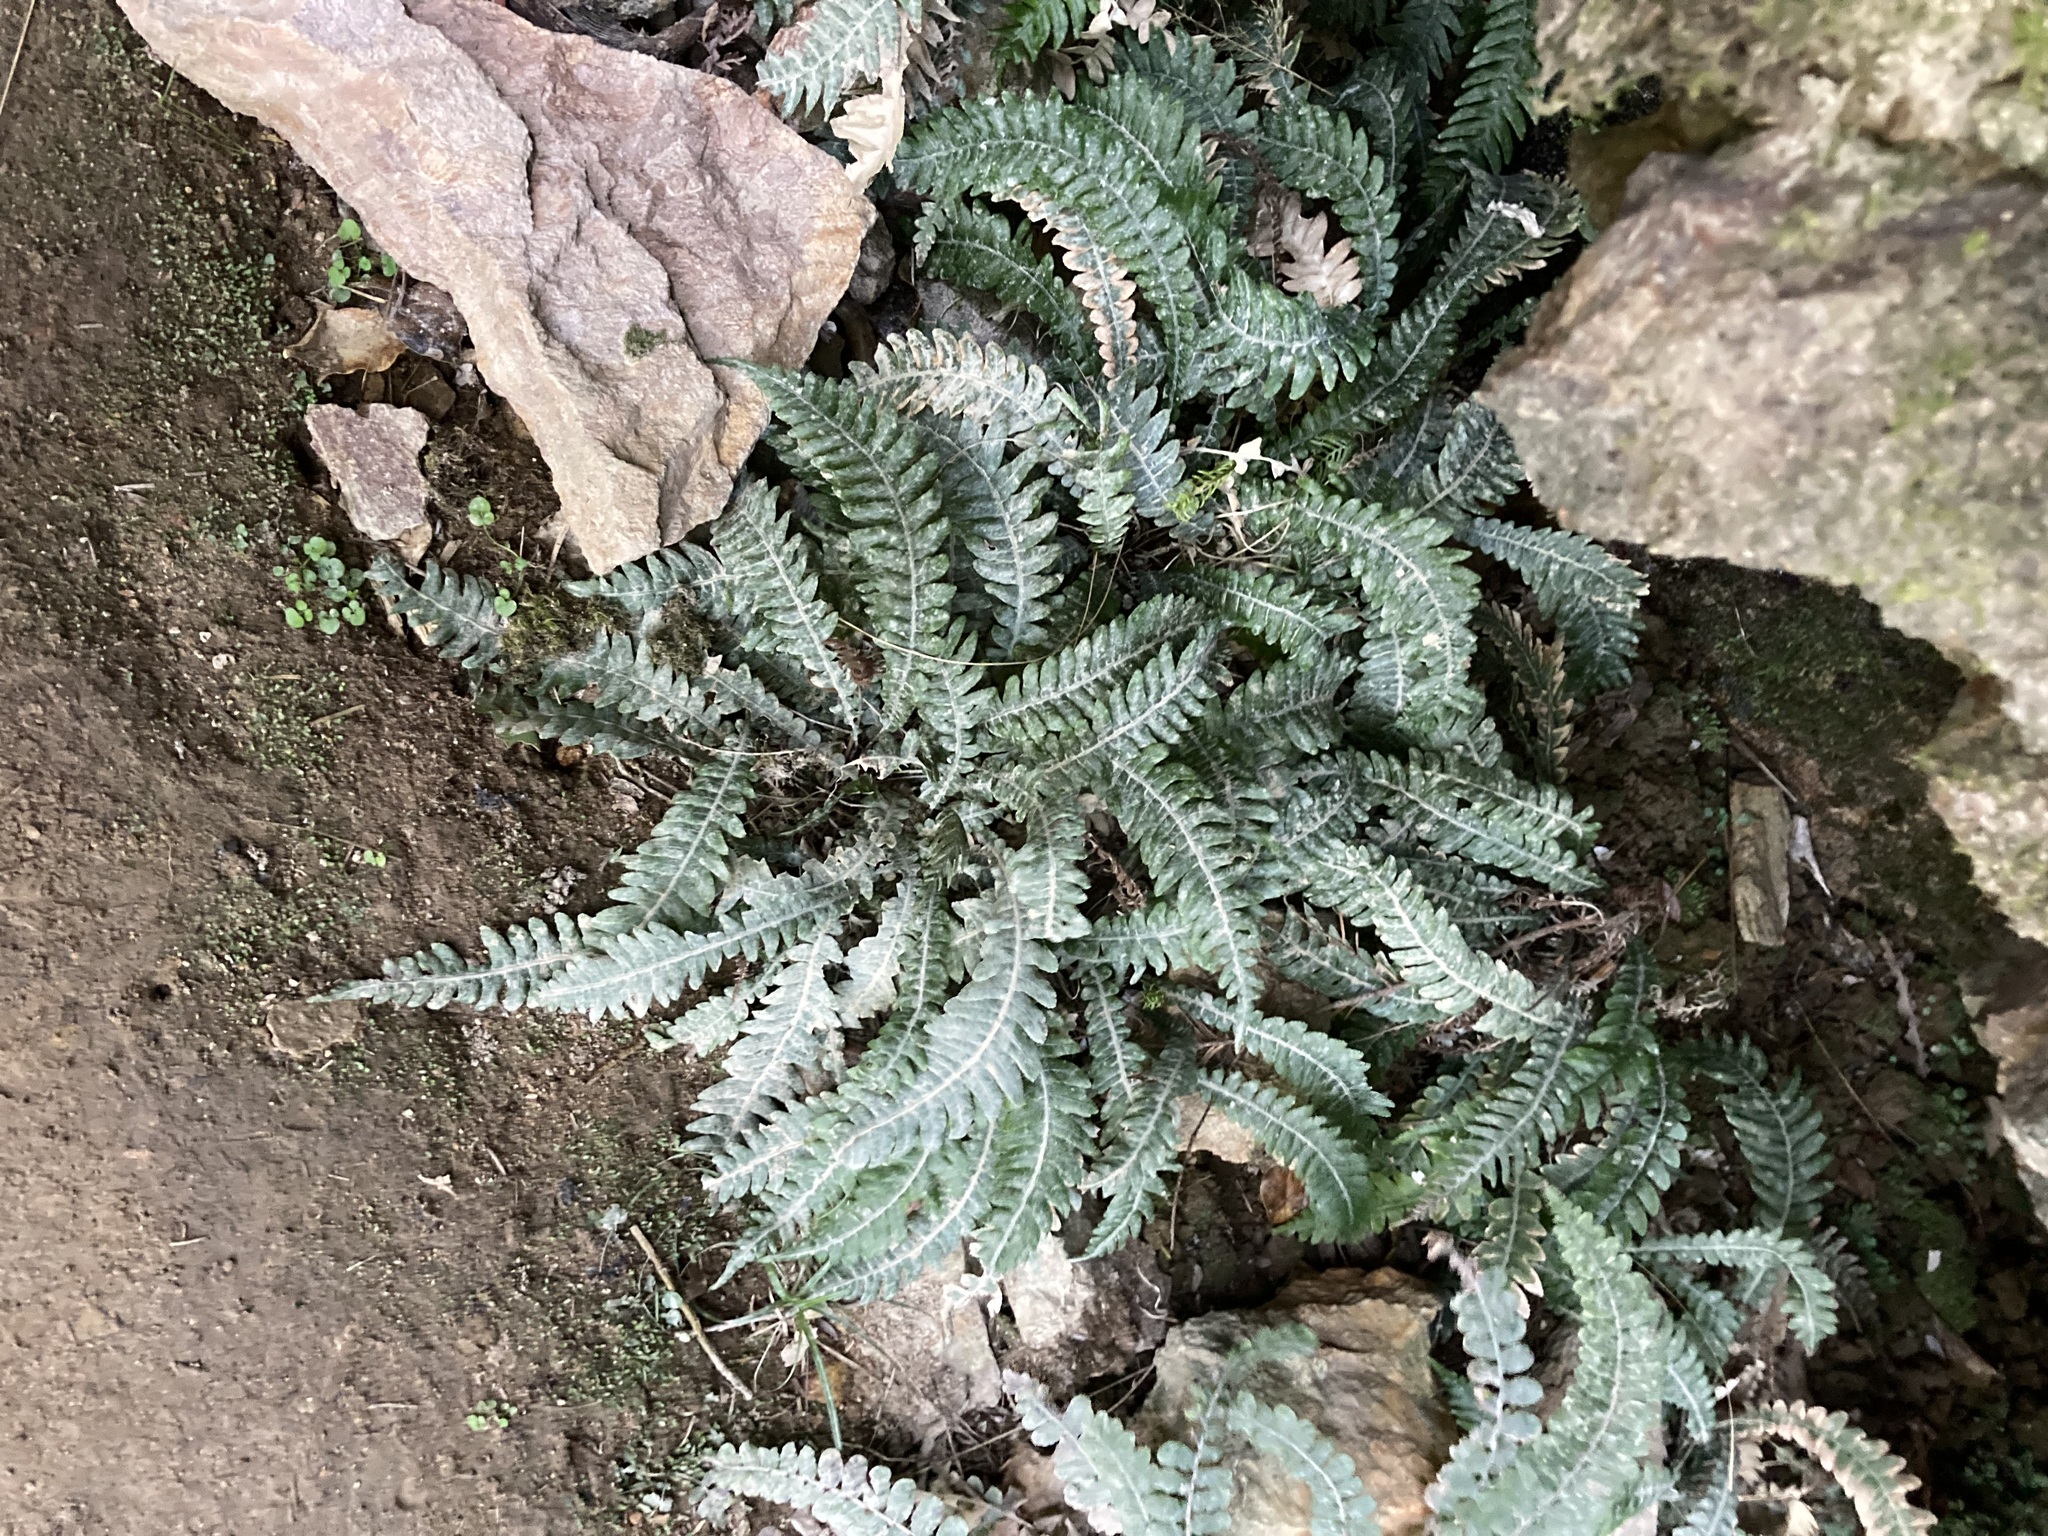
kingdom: Plantae
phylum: Tracheophyta
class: Polypodiopsida
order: Polypodiales
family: Blechnaceae
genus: Austroblechnum
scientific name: Austroblechnum lanceolatum
